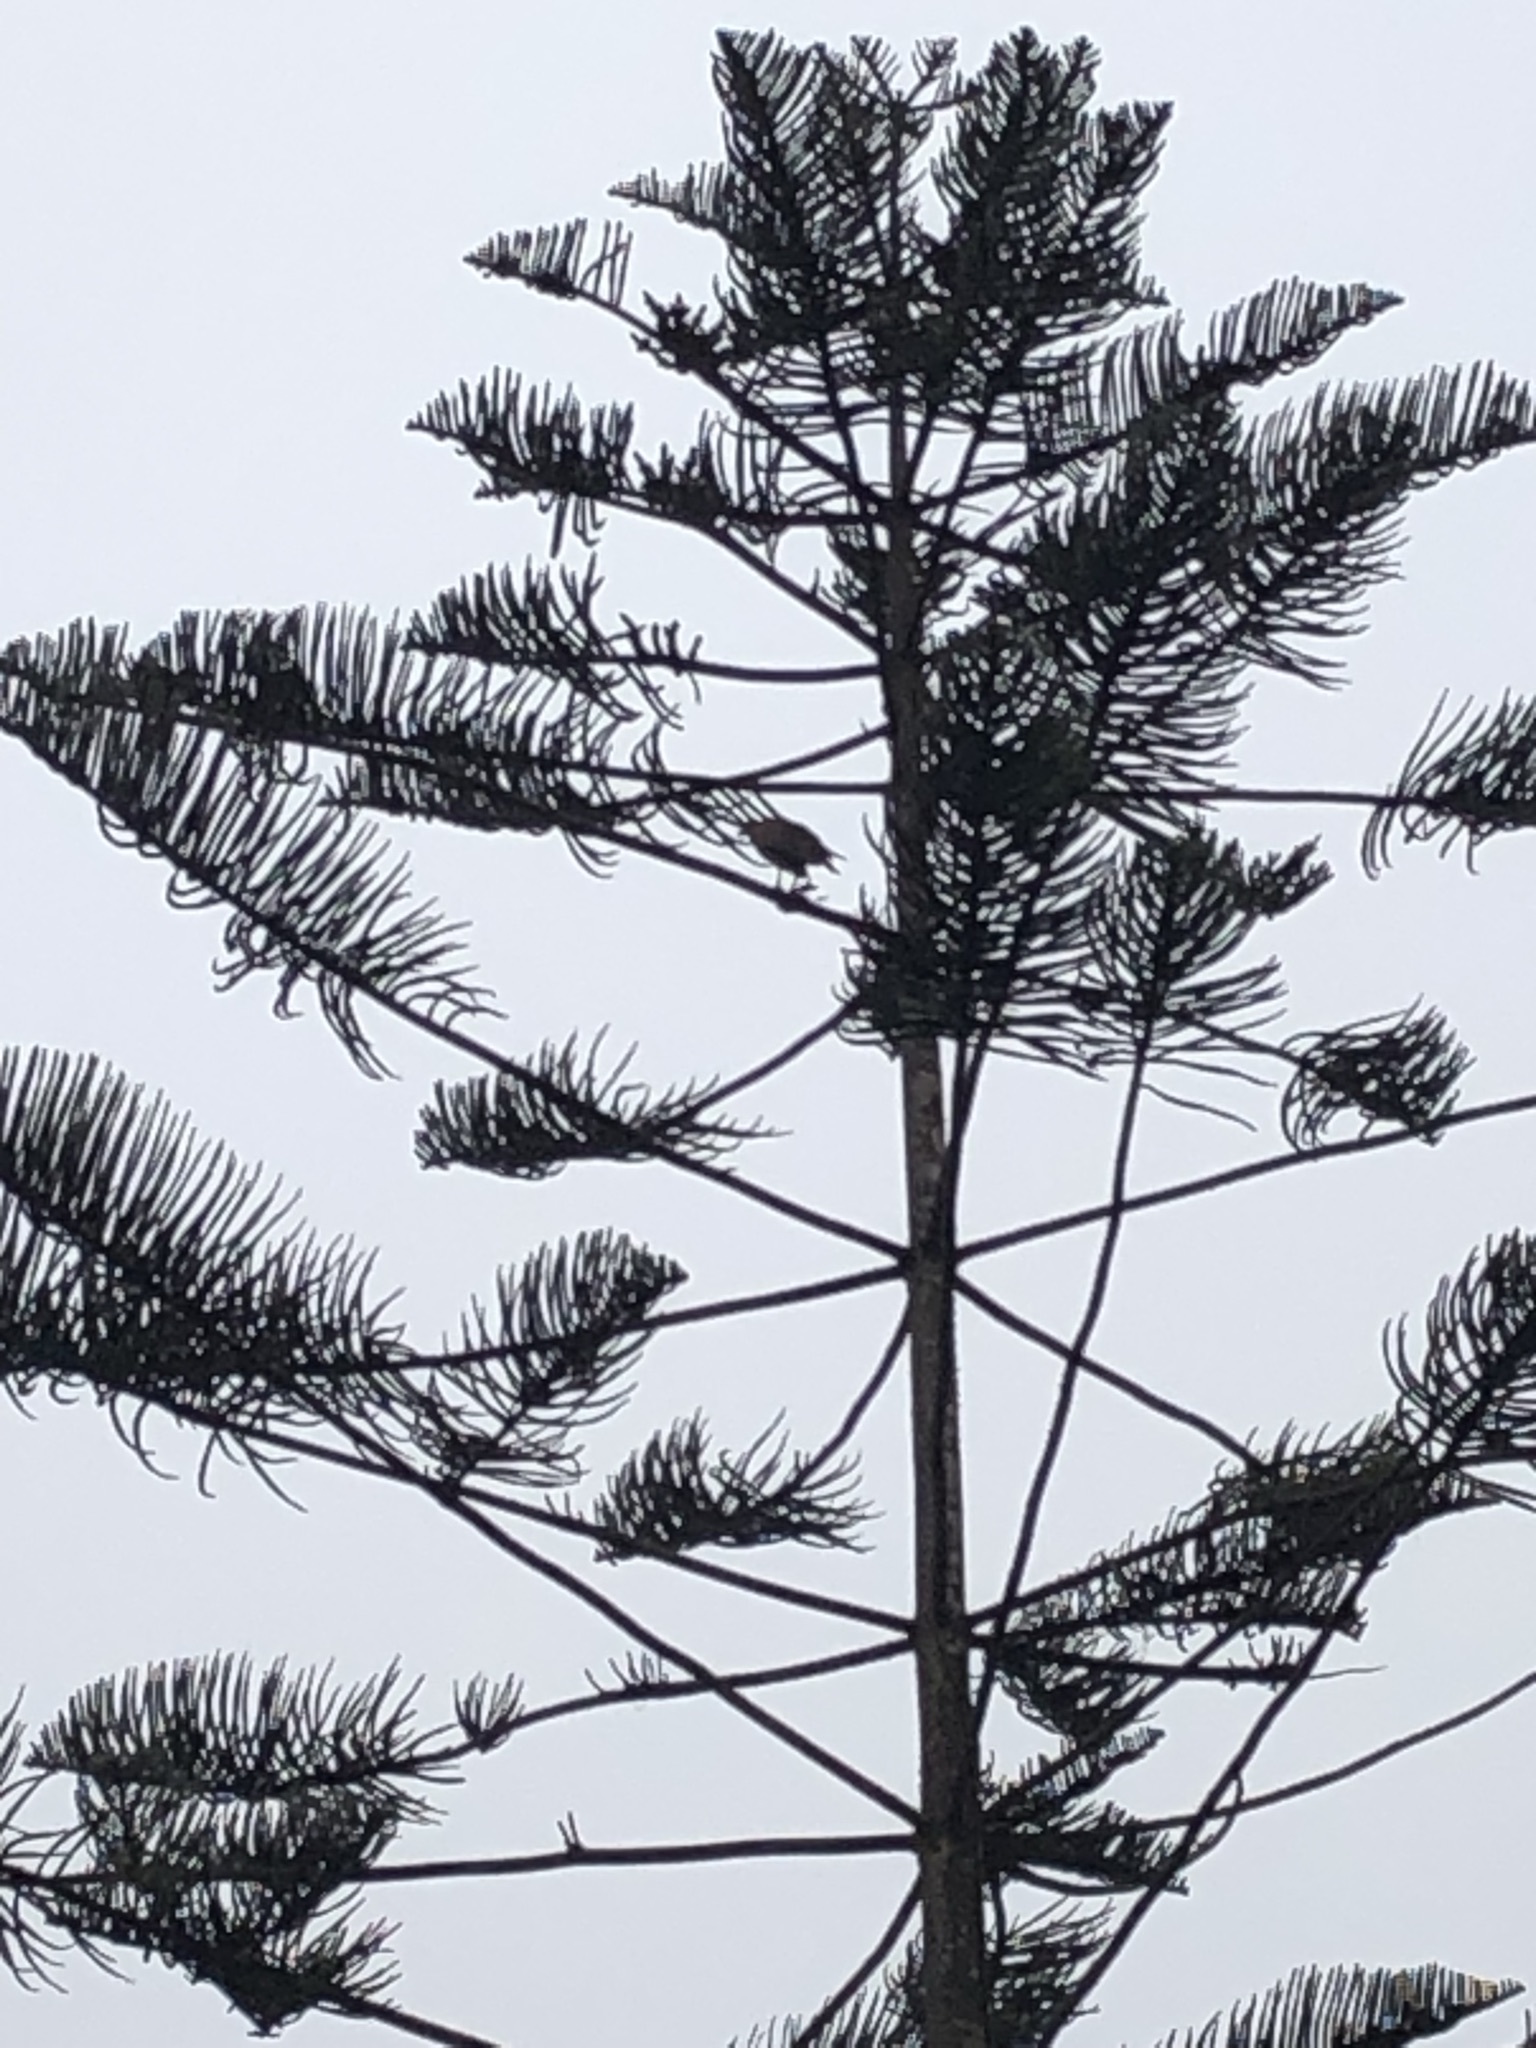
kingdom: Animalia
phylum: Chordata
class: Aves
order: Accipitriformes
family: Accipitridae
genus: Parabuteo
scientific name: Parabuteo unicinctus
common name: Harris's hawk
